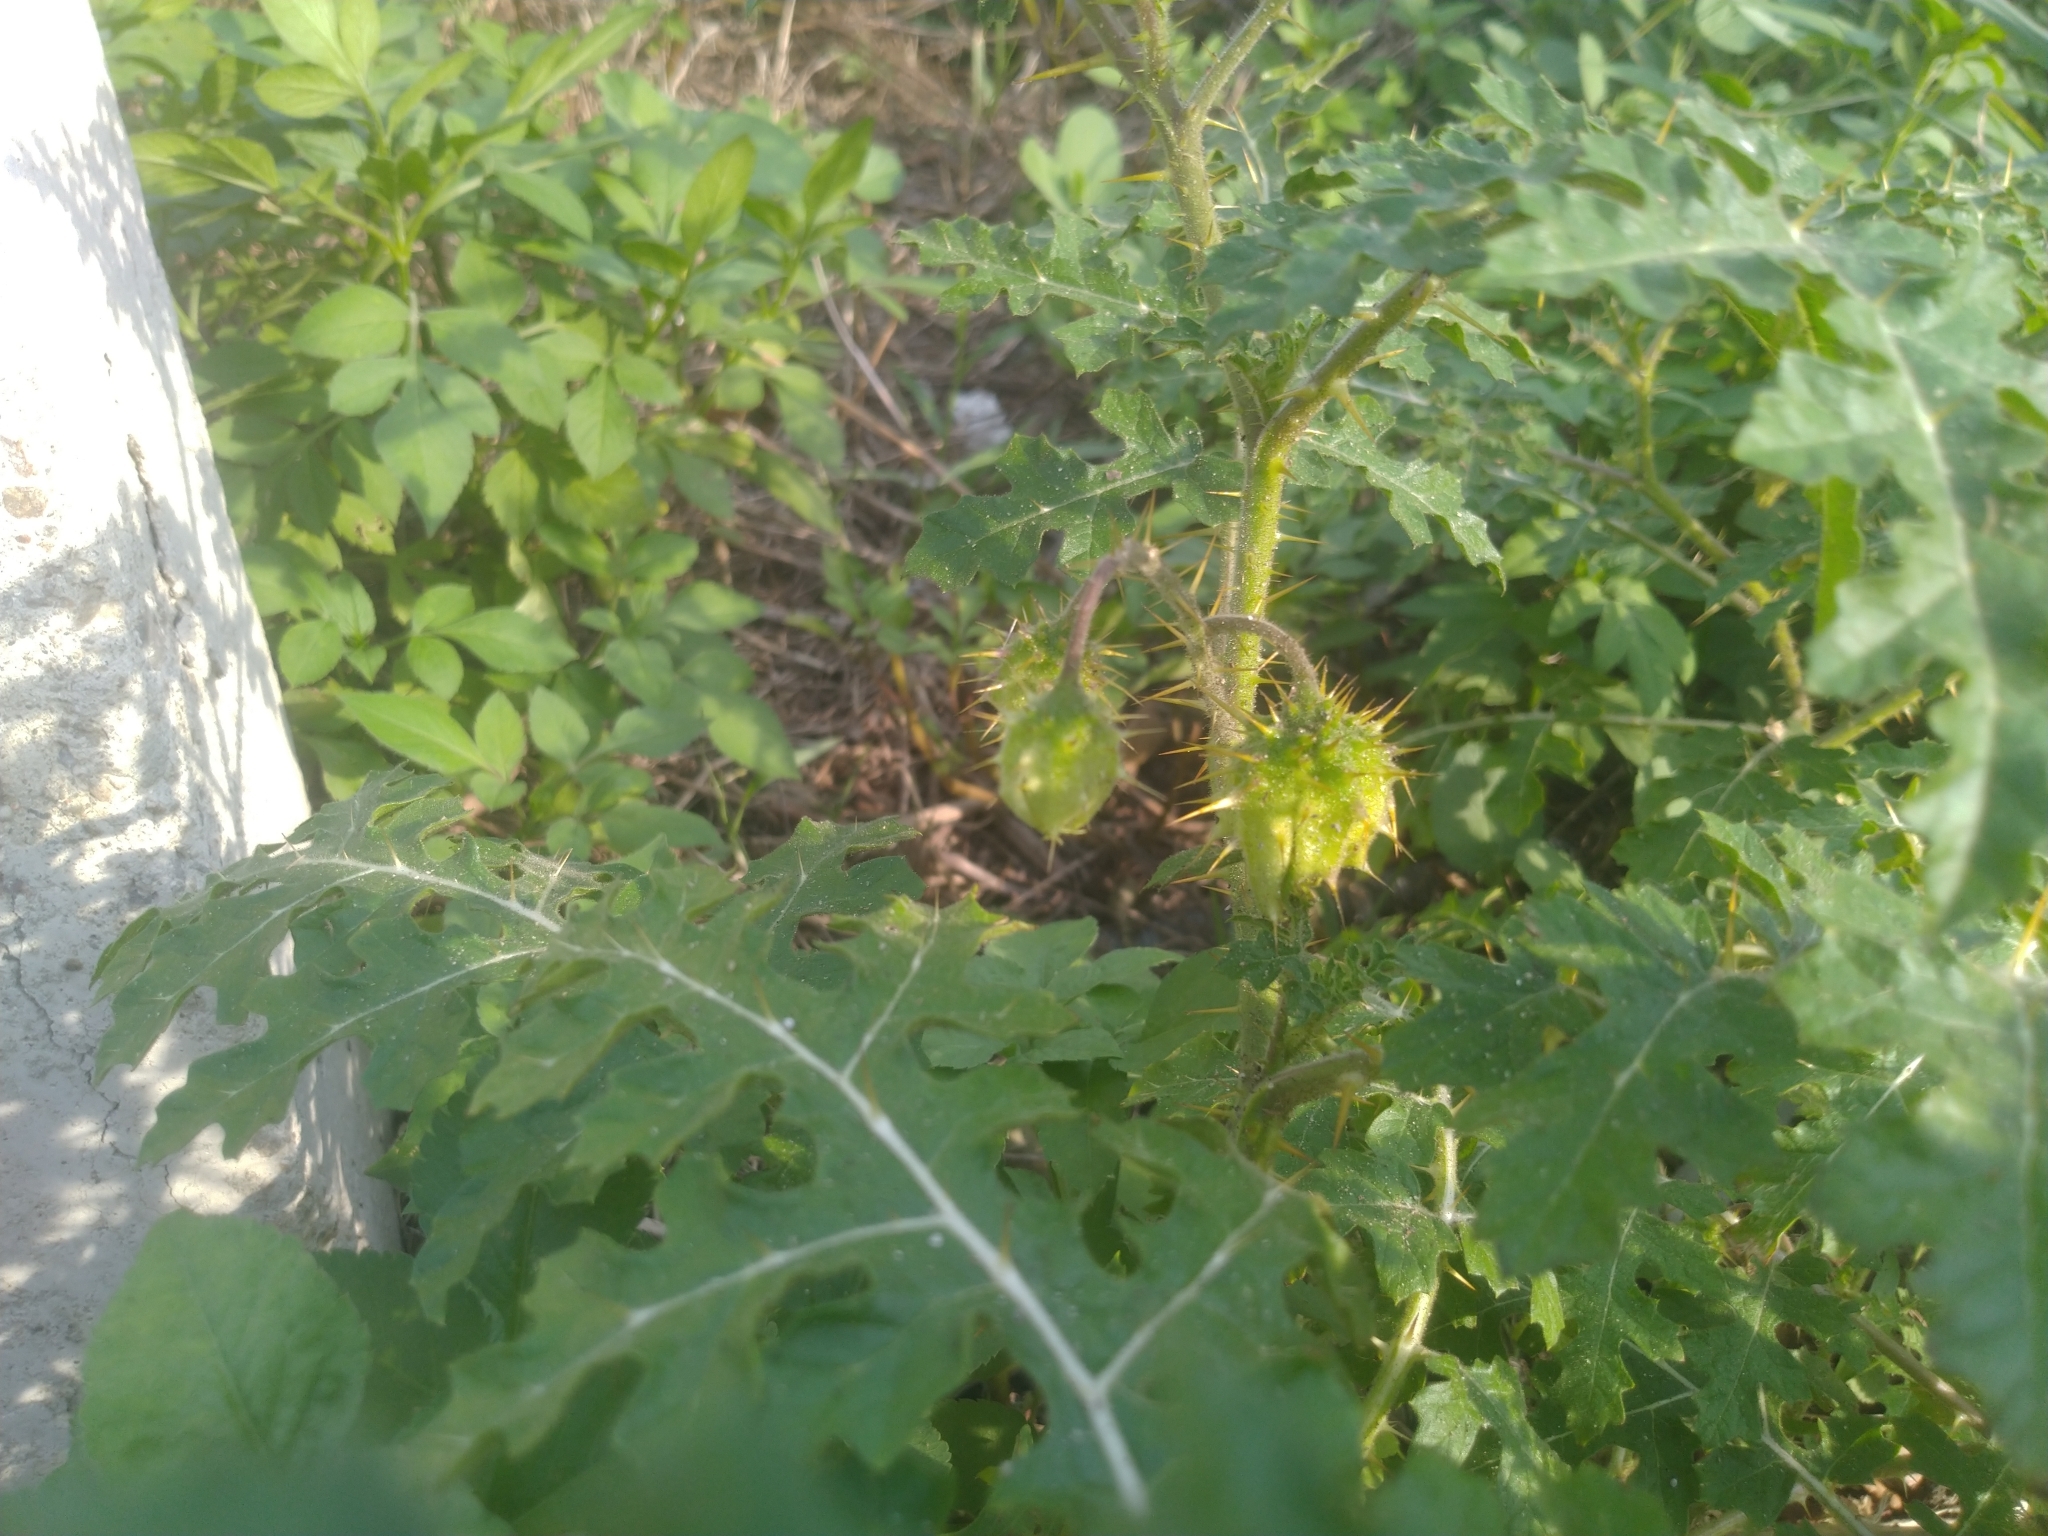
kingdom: Plantae
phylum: Tracheophyta
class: Magnoliopsida
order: Solanales
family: Solanaceae
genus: Solanum
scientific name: Solanum sisymbriifolium
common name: Red buffalo-bur
